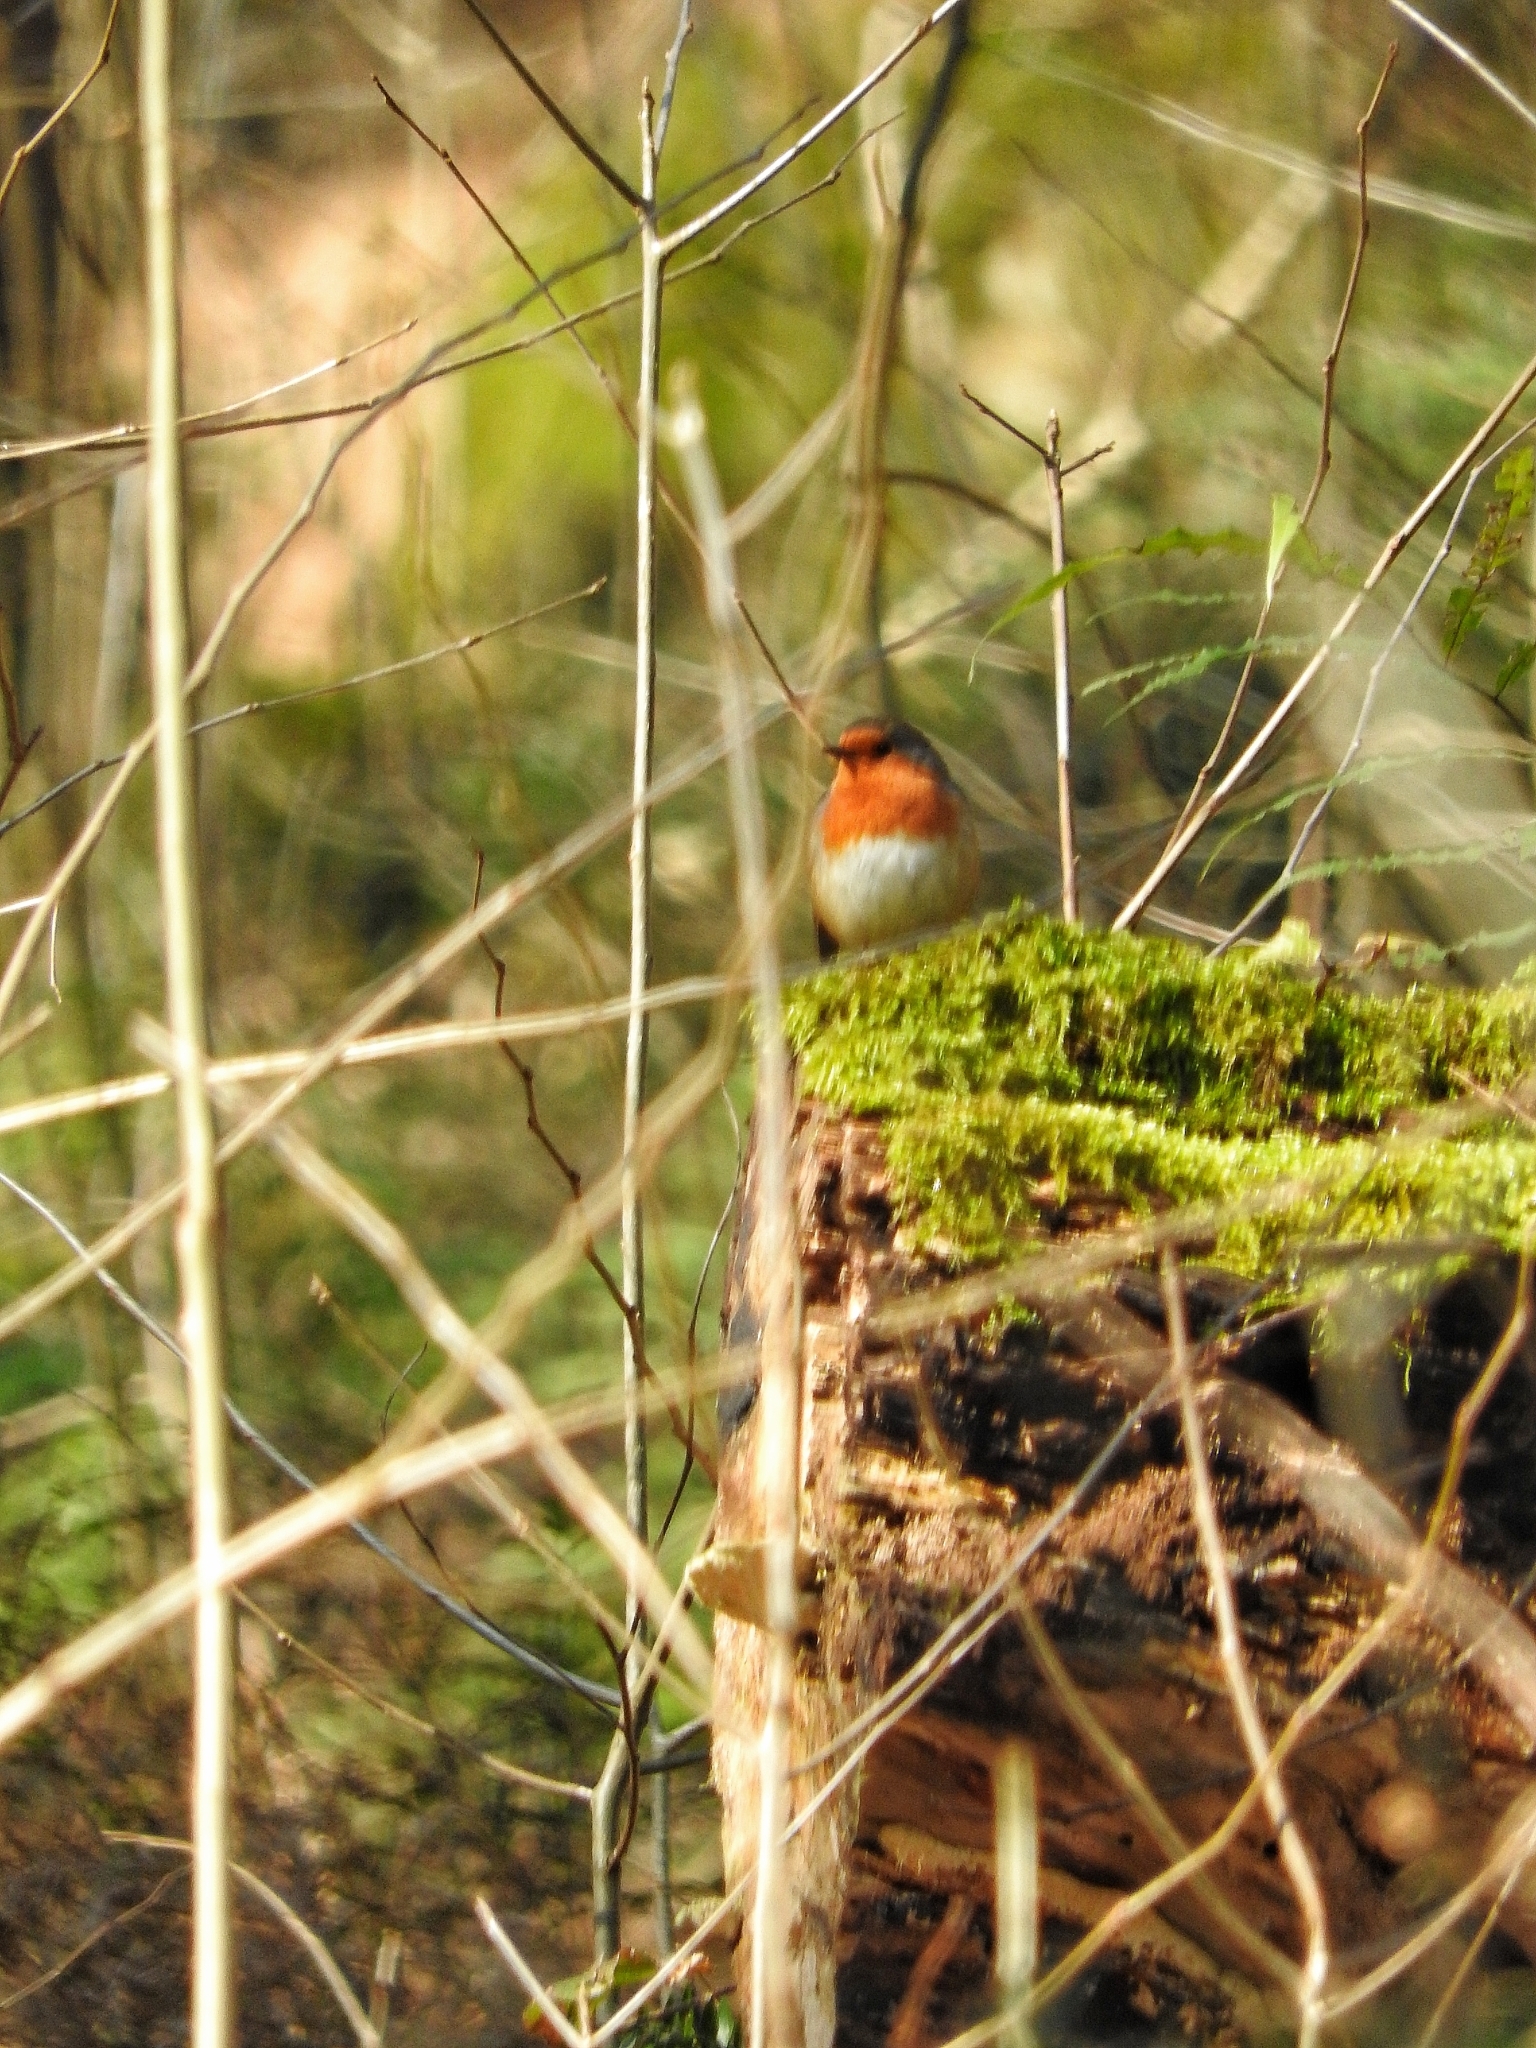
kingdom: Animalia
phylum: Chordata
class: Aves
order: Passeriformes
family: Muscicapidae
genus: Erithacus
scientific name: Erithacus rubecula
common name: European robin
